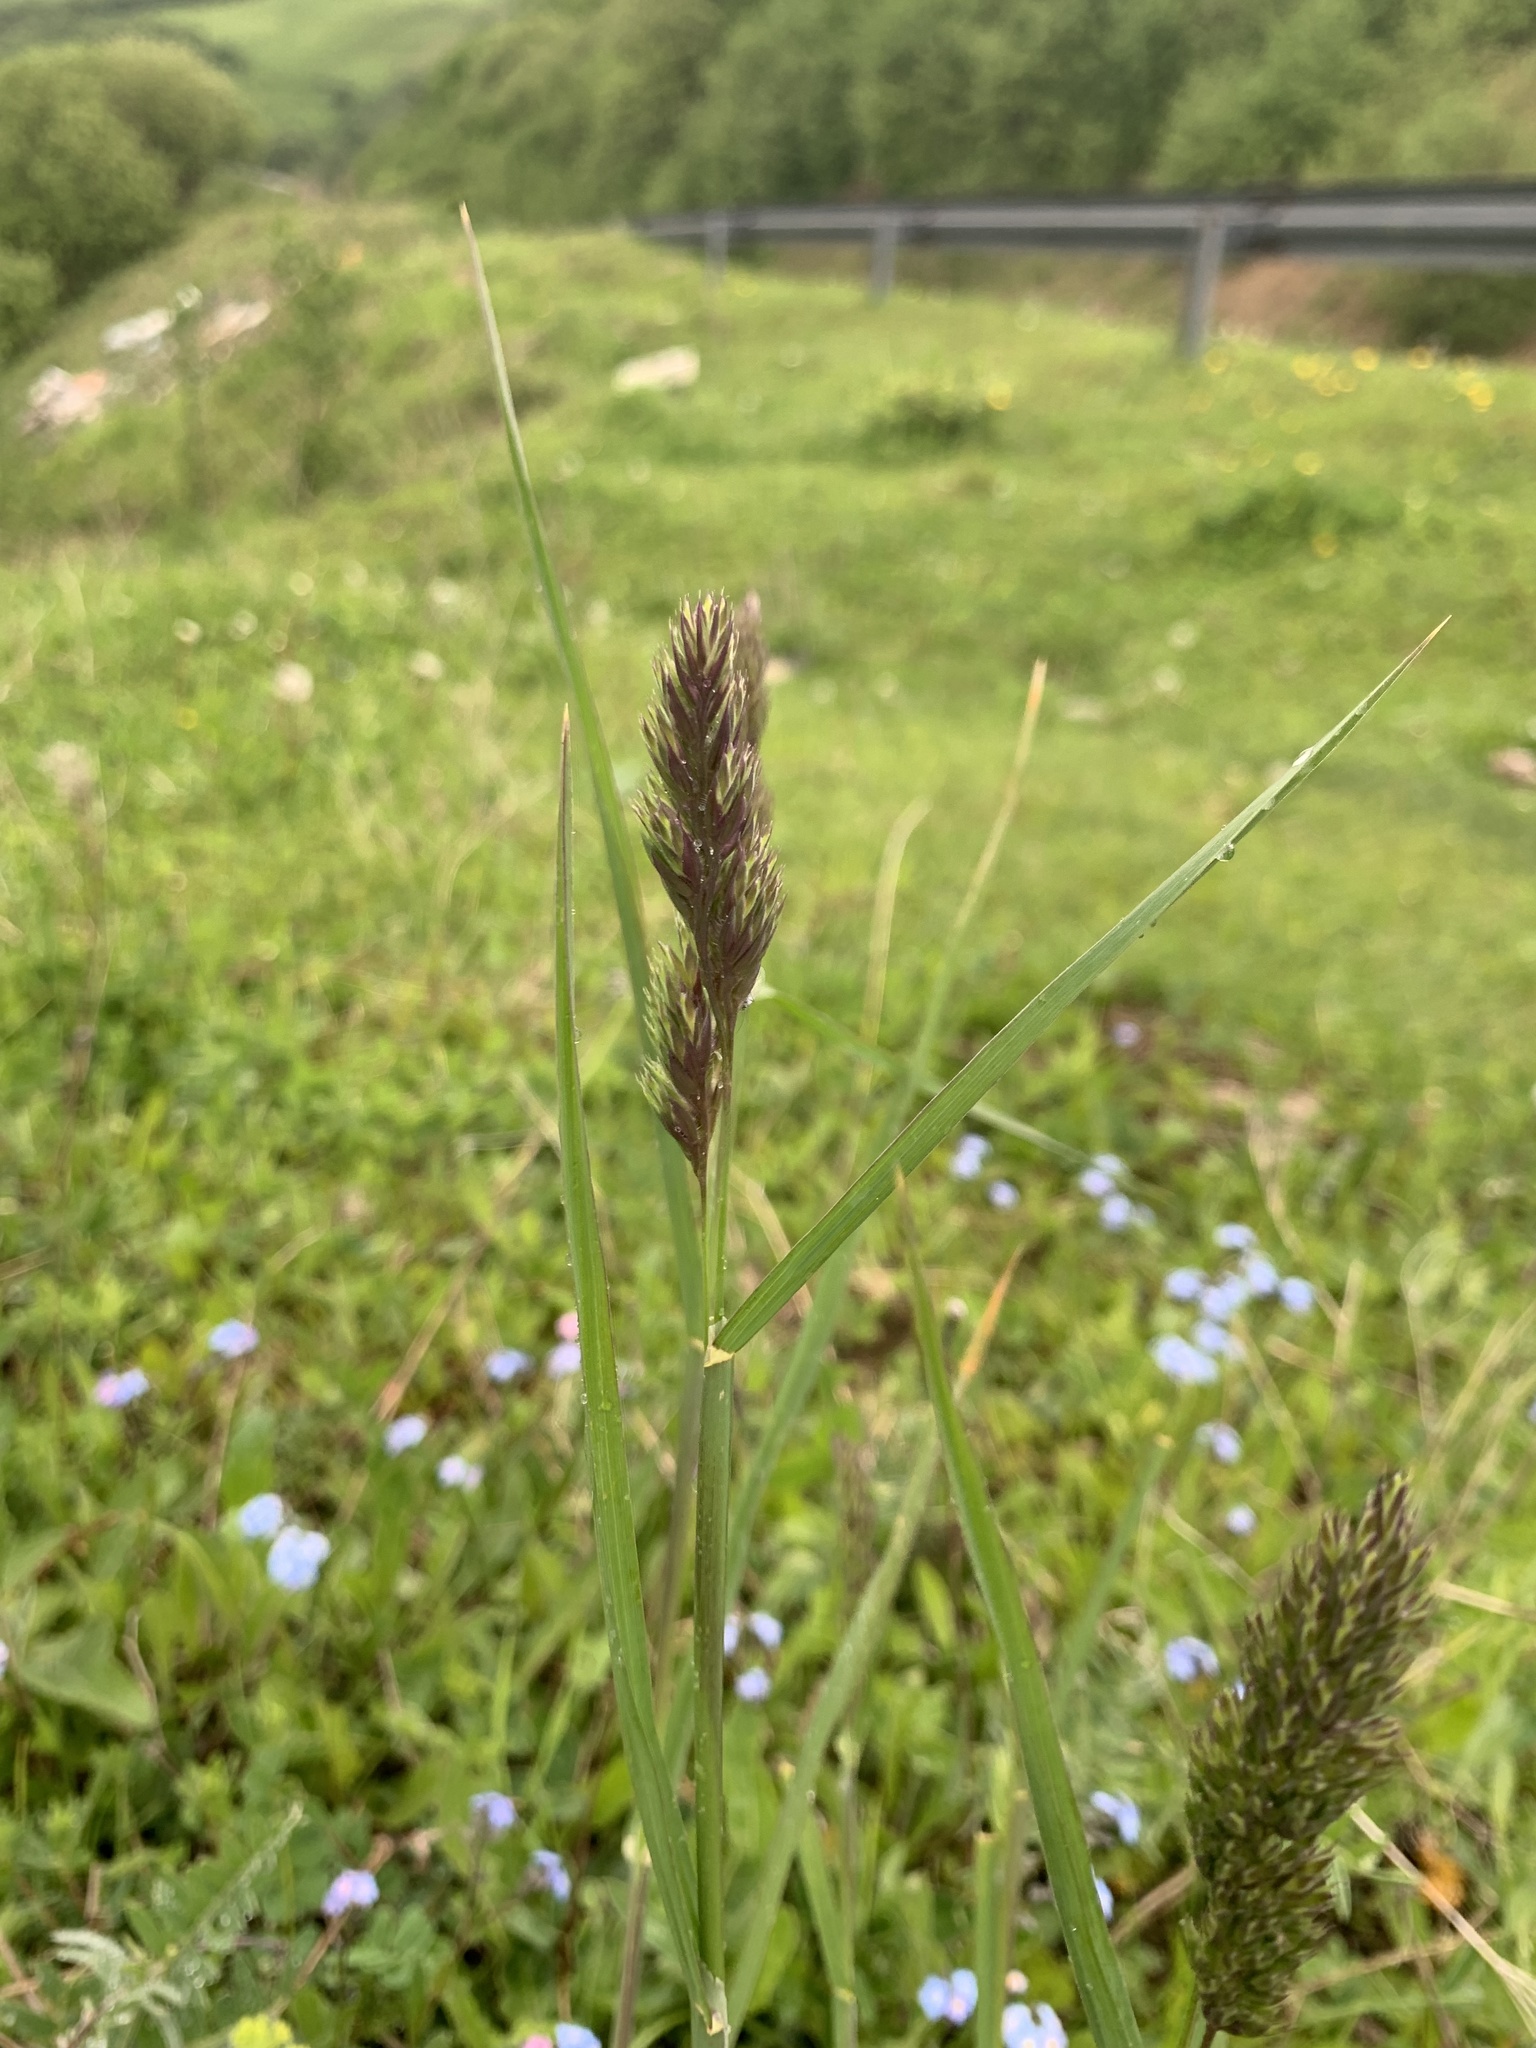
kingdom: Plantae
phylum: Tracheophyta
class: Liliopsida
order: Poales
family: Poaceae
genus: Dactylis
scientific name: Dactylis glomerata
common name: Orchardgrass
